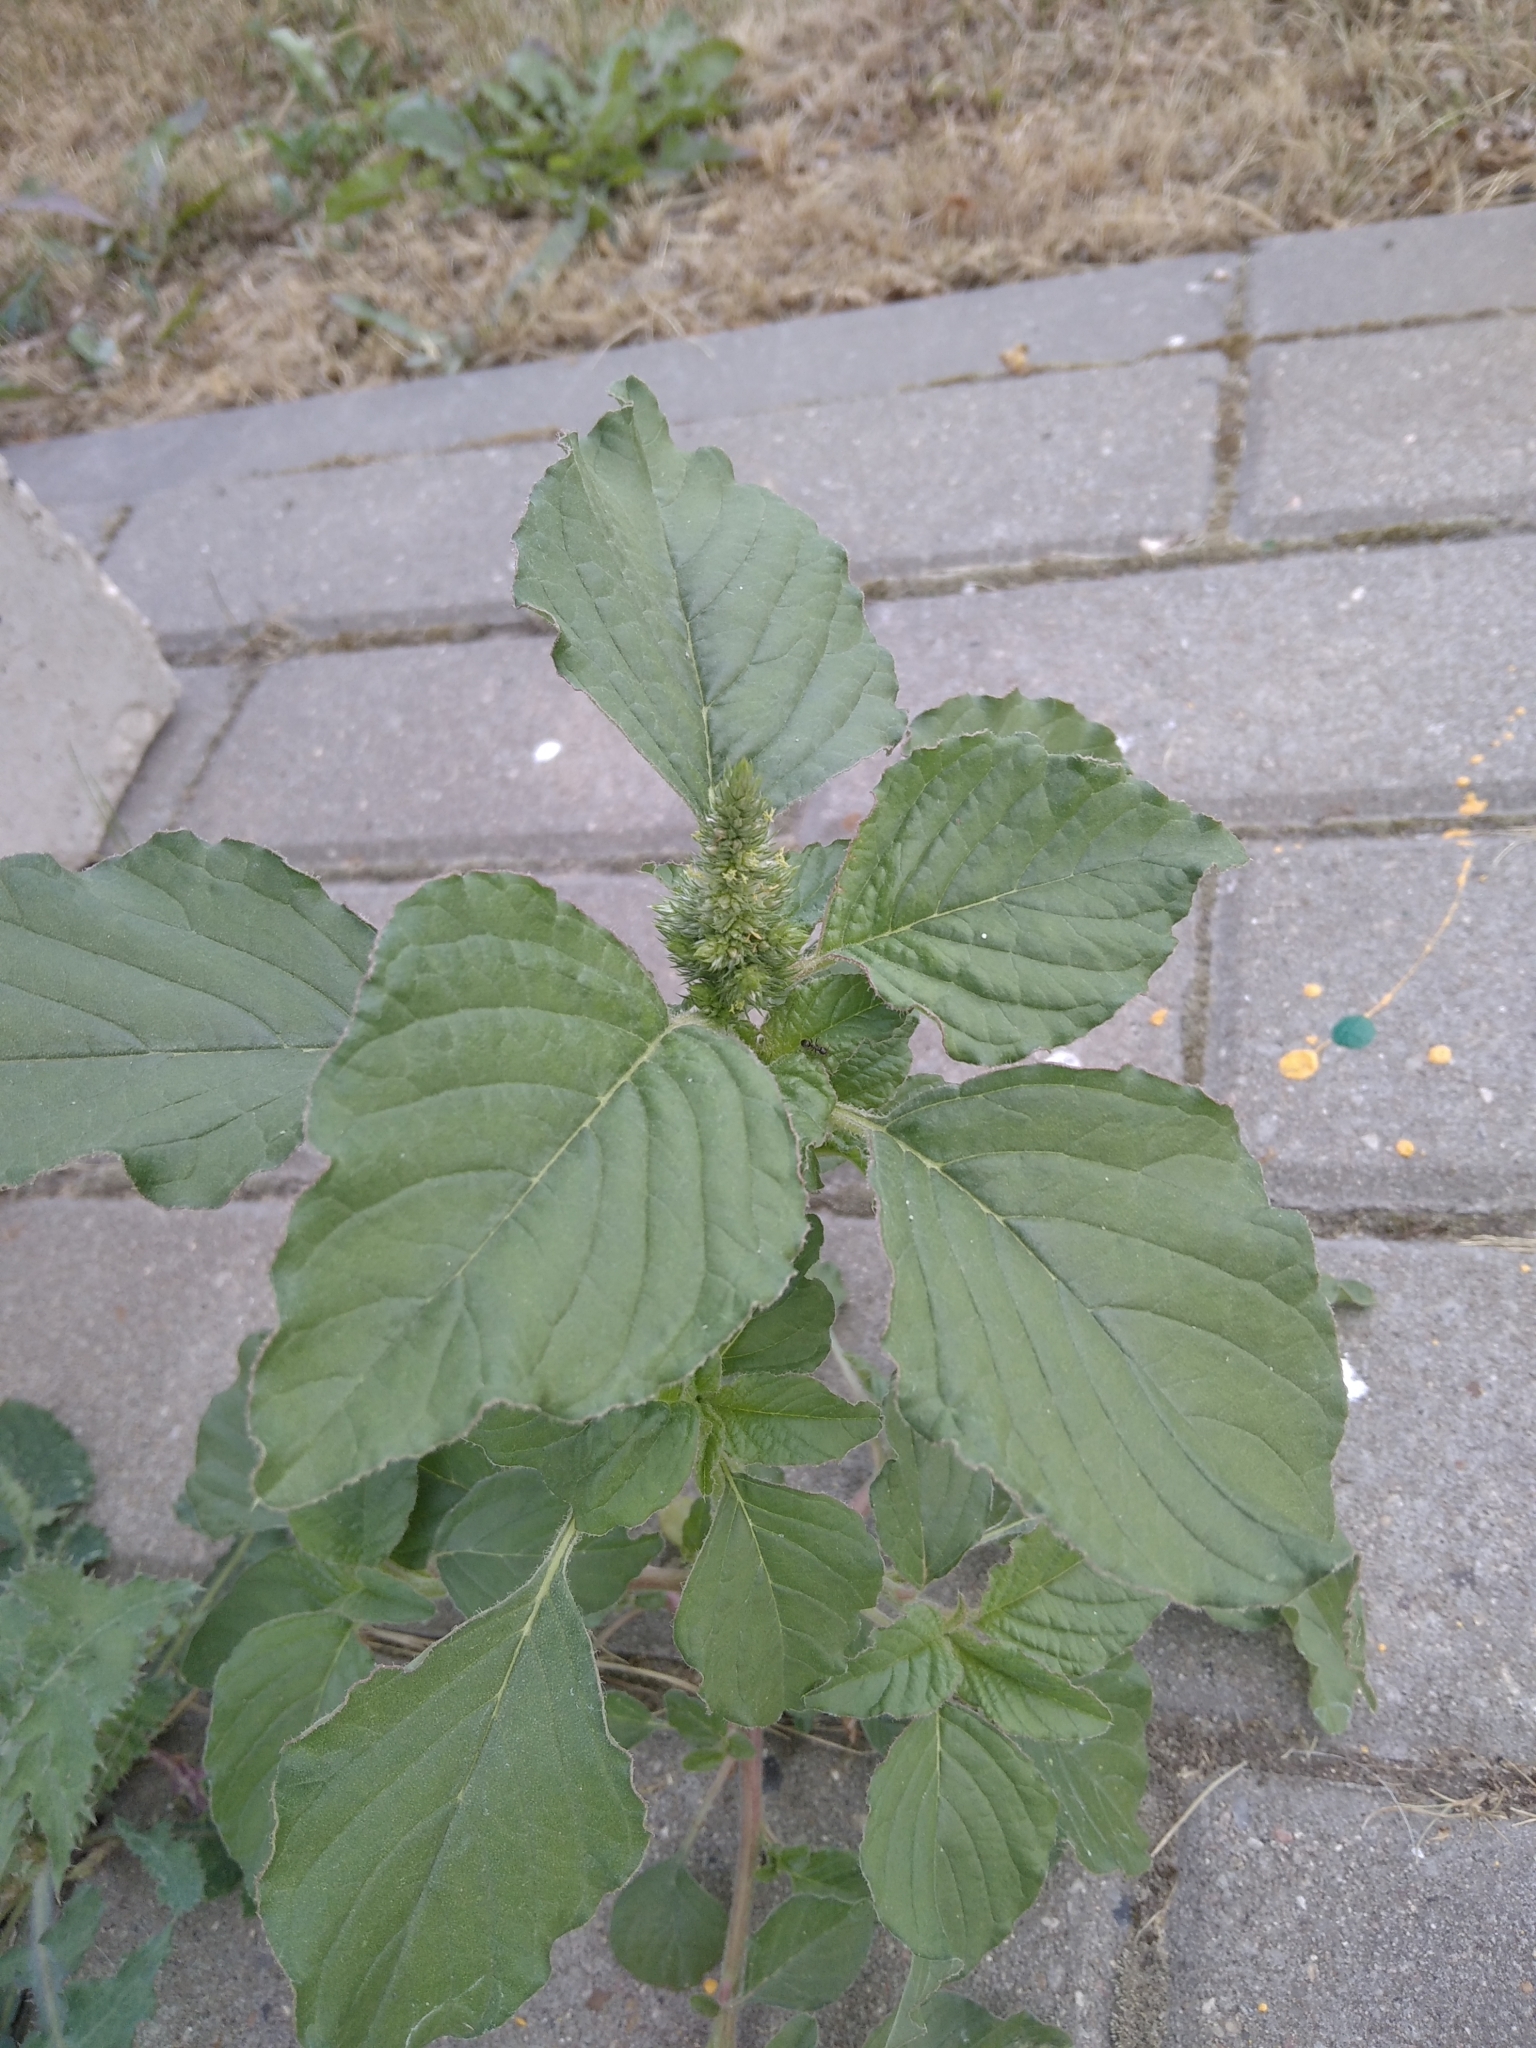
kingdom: Plantae
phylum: Tracheophyta
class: Magnoliopsida
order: Caryophyllales
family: Amaranthaceae
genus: Amaranthus
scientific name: Amaranthus retroflexus
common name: Redroot amaranth
